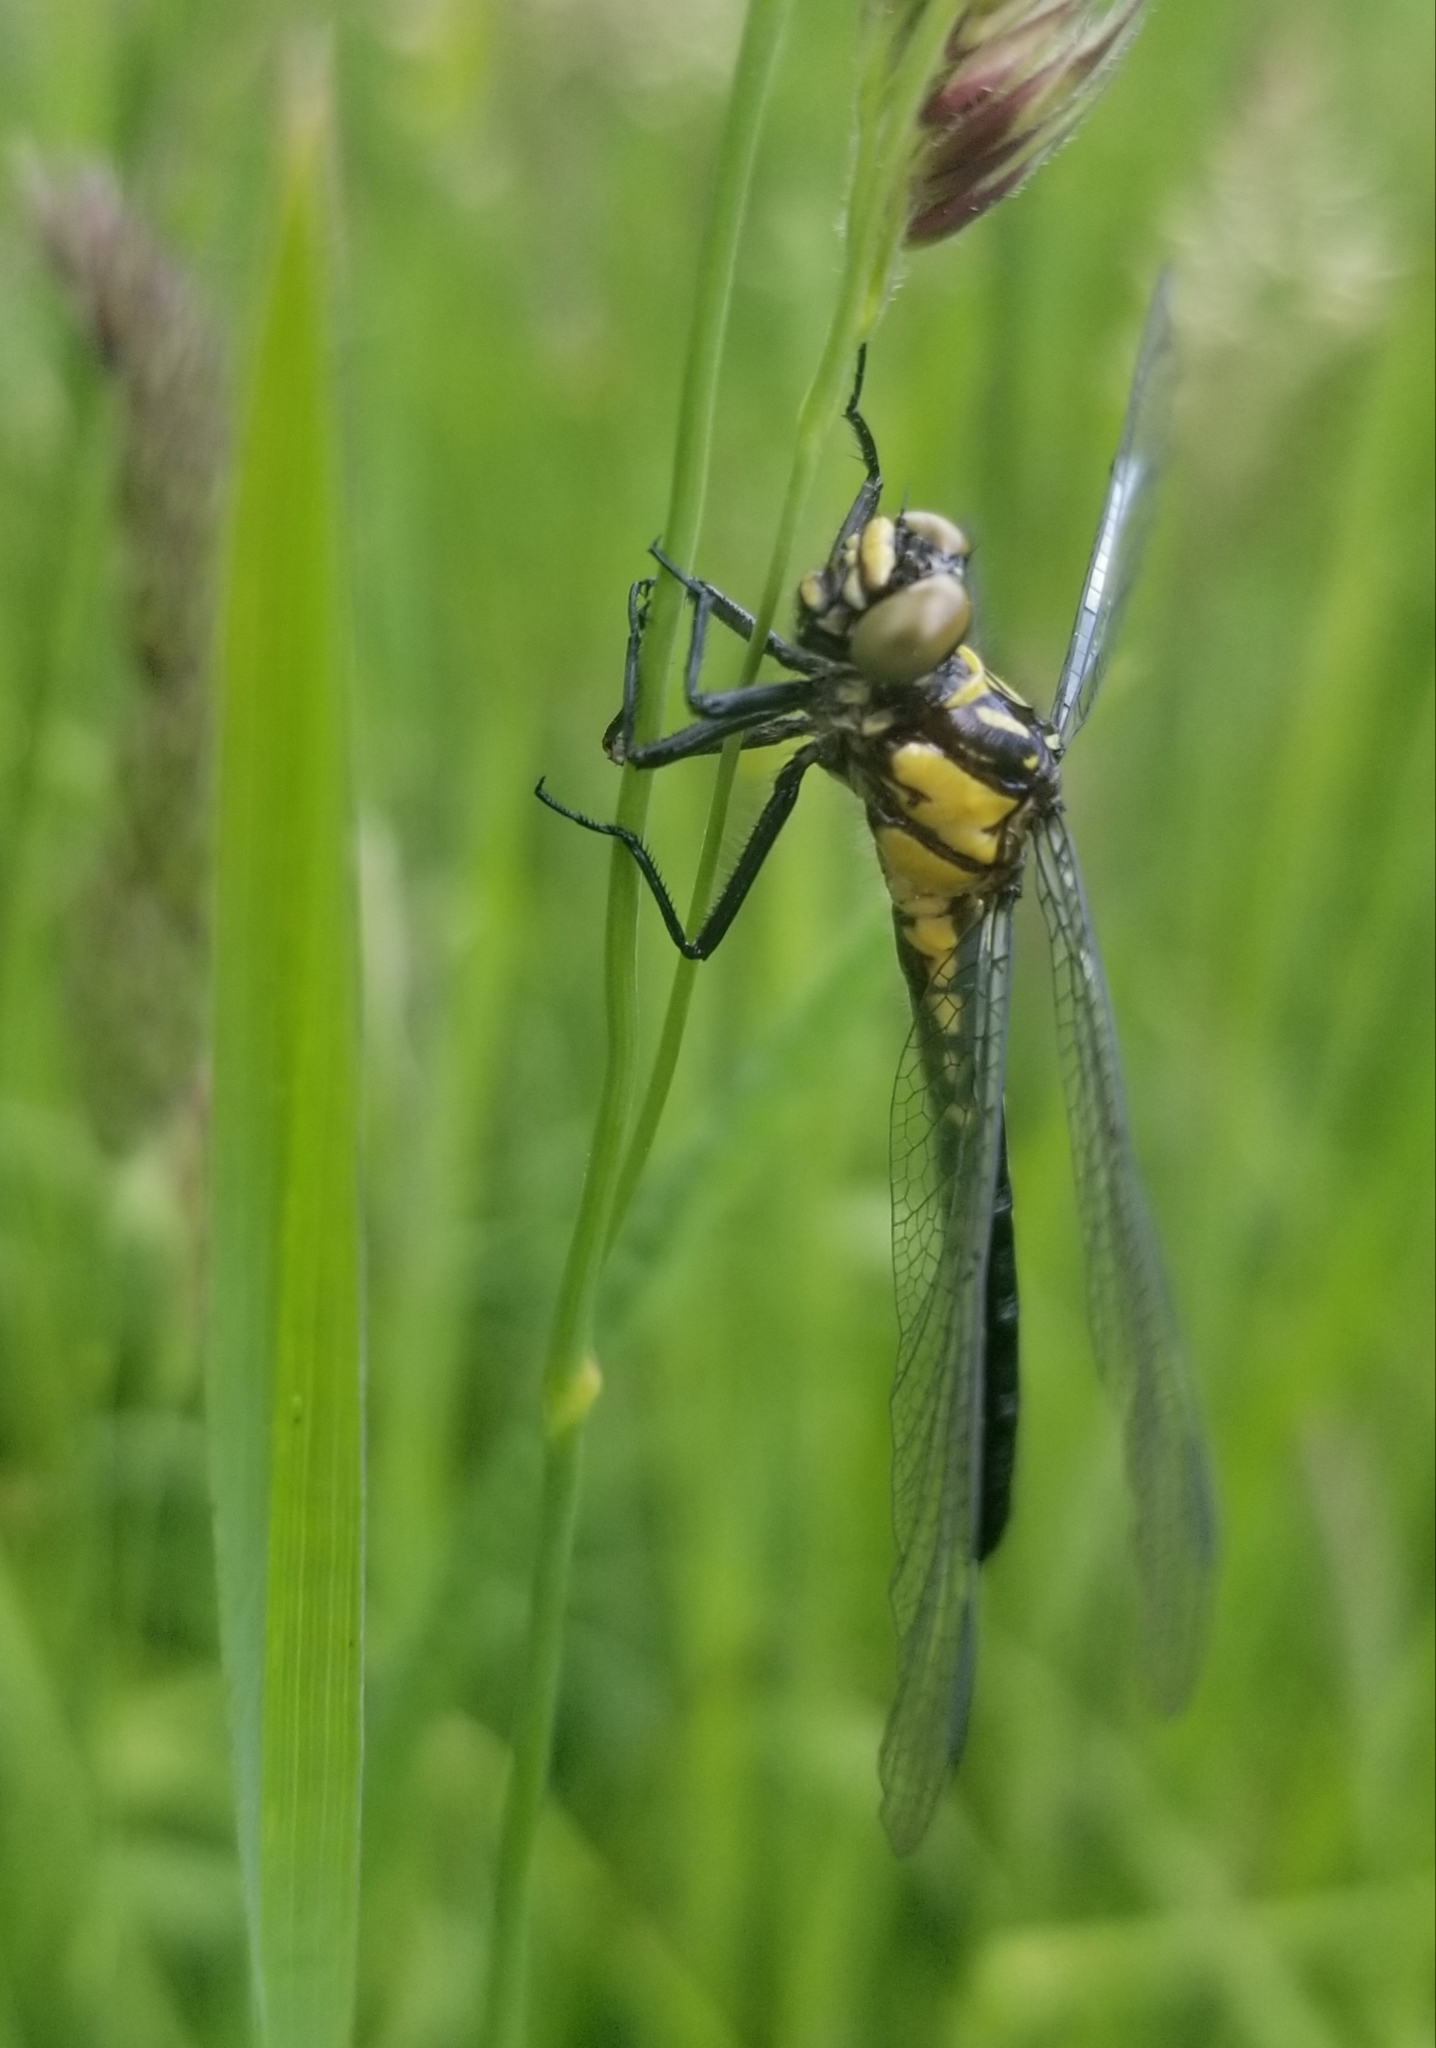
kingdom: Animalia
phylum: Arthropoda
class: Insecta
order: Odonata
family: Gomphidae
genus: Lanthus
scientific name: Lanthus vernalis
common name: Southern pygmy clubtail
